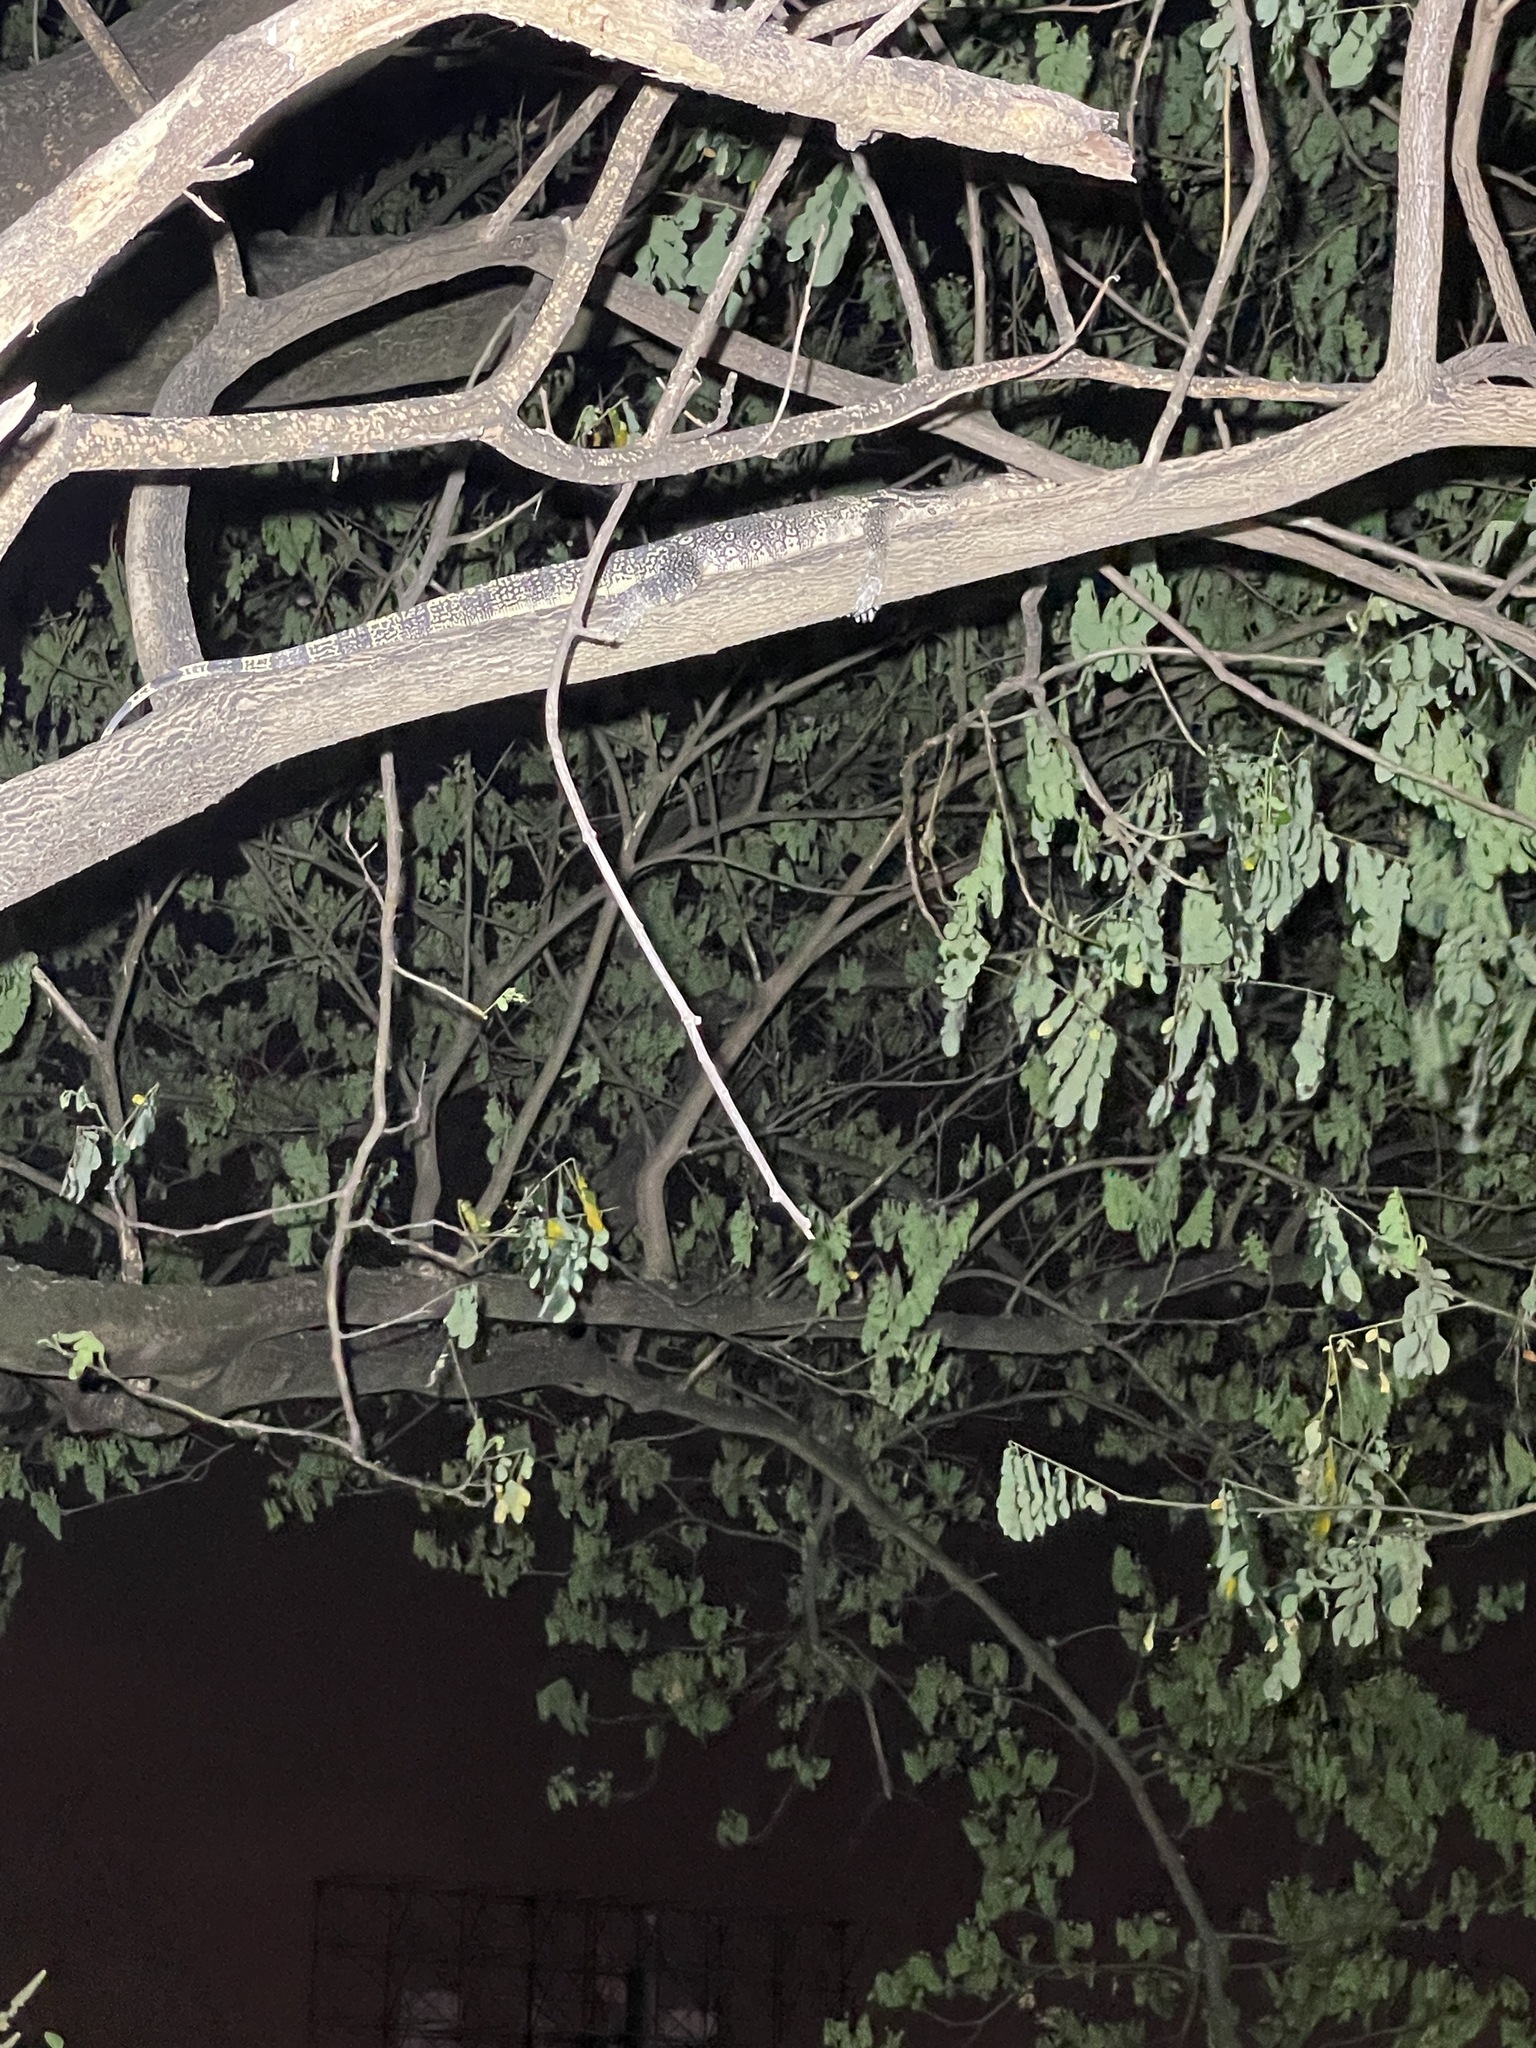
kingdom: Animalia
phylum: Chordata
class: Squamata
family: Varanidae
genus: Varanus
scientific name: Varanus salvator
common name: Common water monitor
